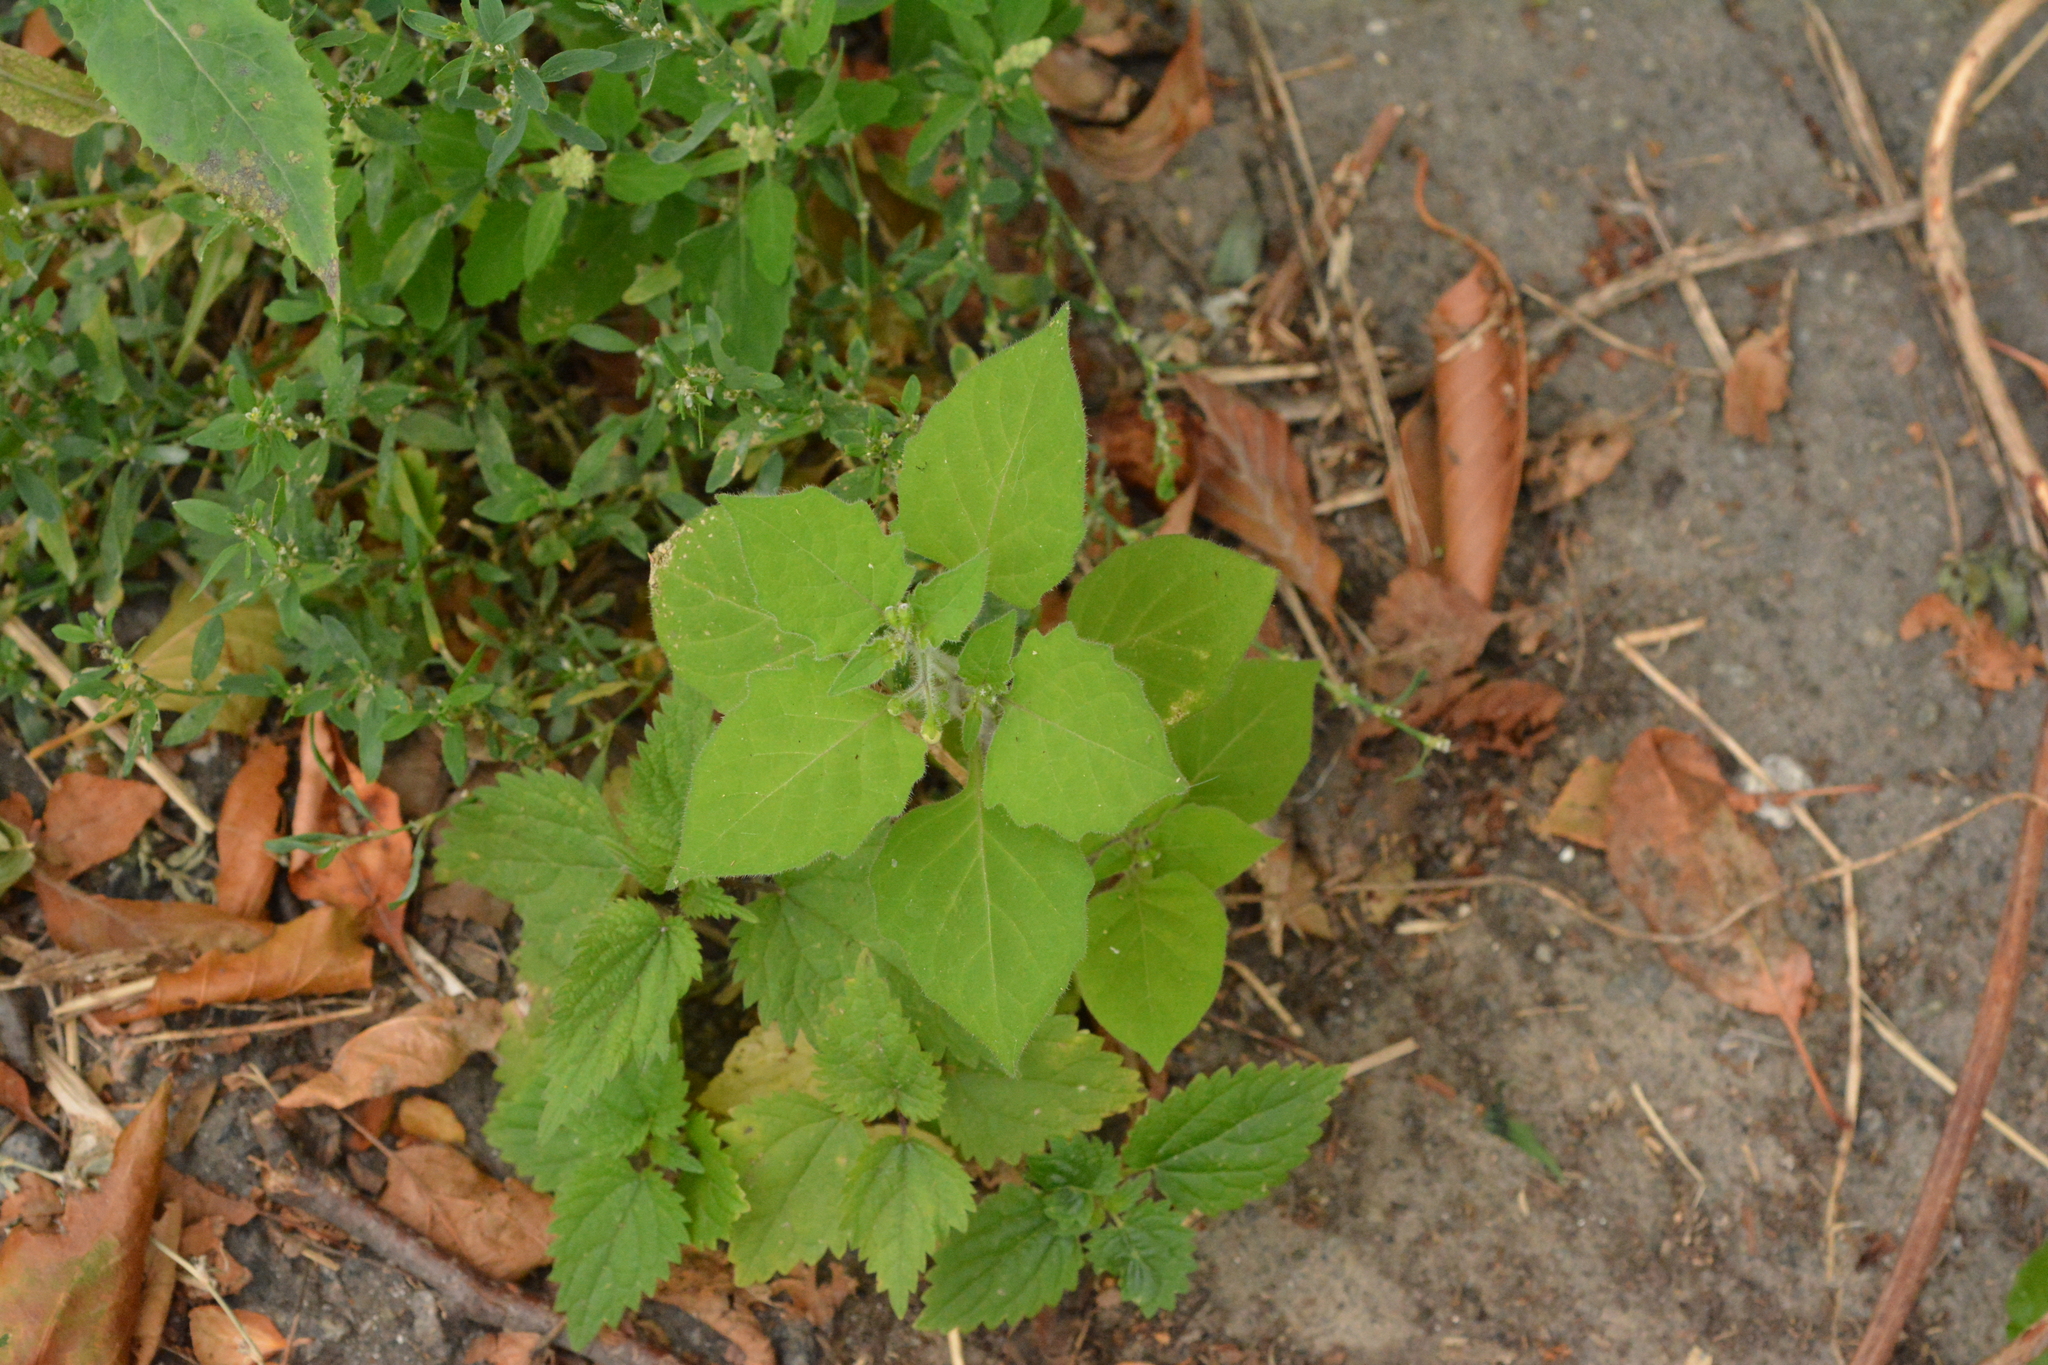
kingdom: Plantae
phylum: Tracheophyta
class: Magnoliopsida
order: Solanales
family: Solanaceae
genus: Solanum
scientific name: Solanum nigrum
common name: Black nightshade
